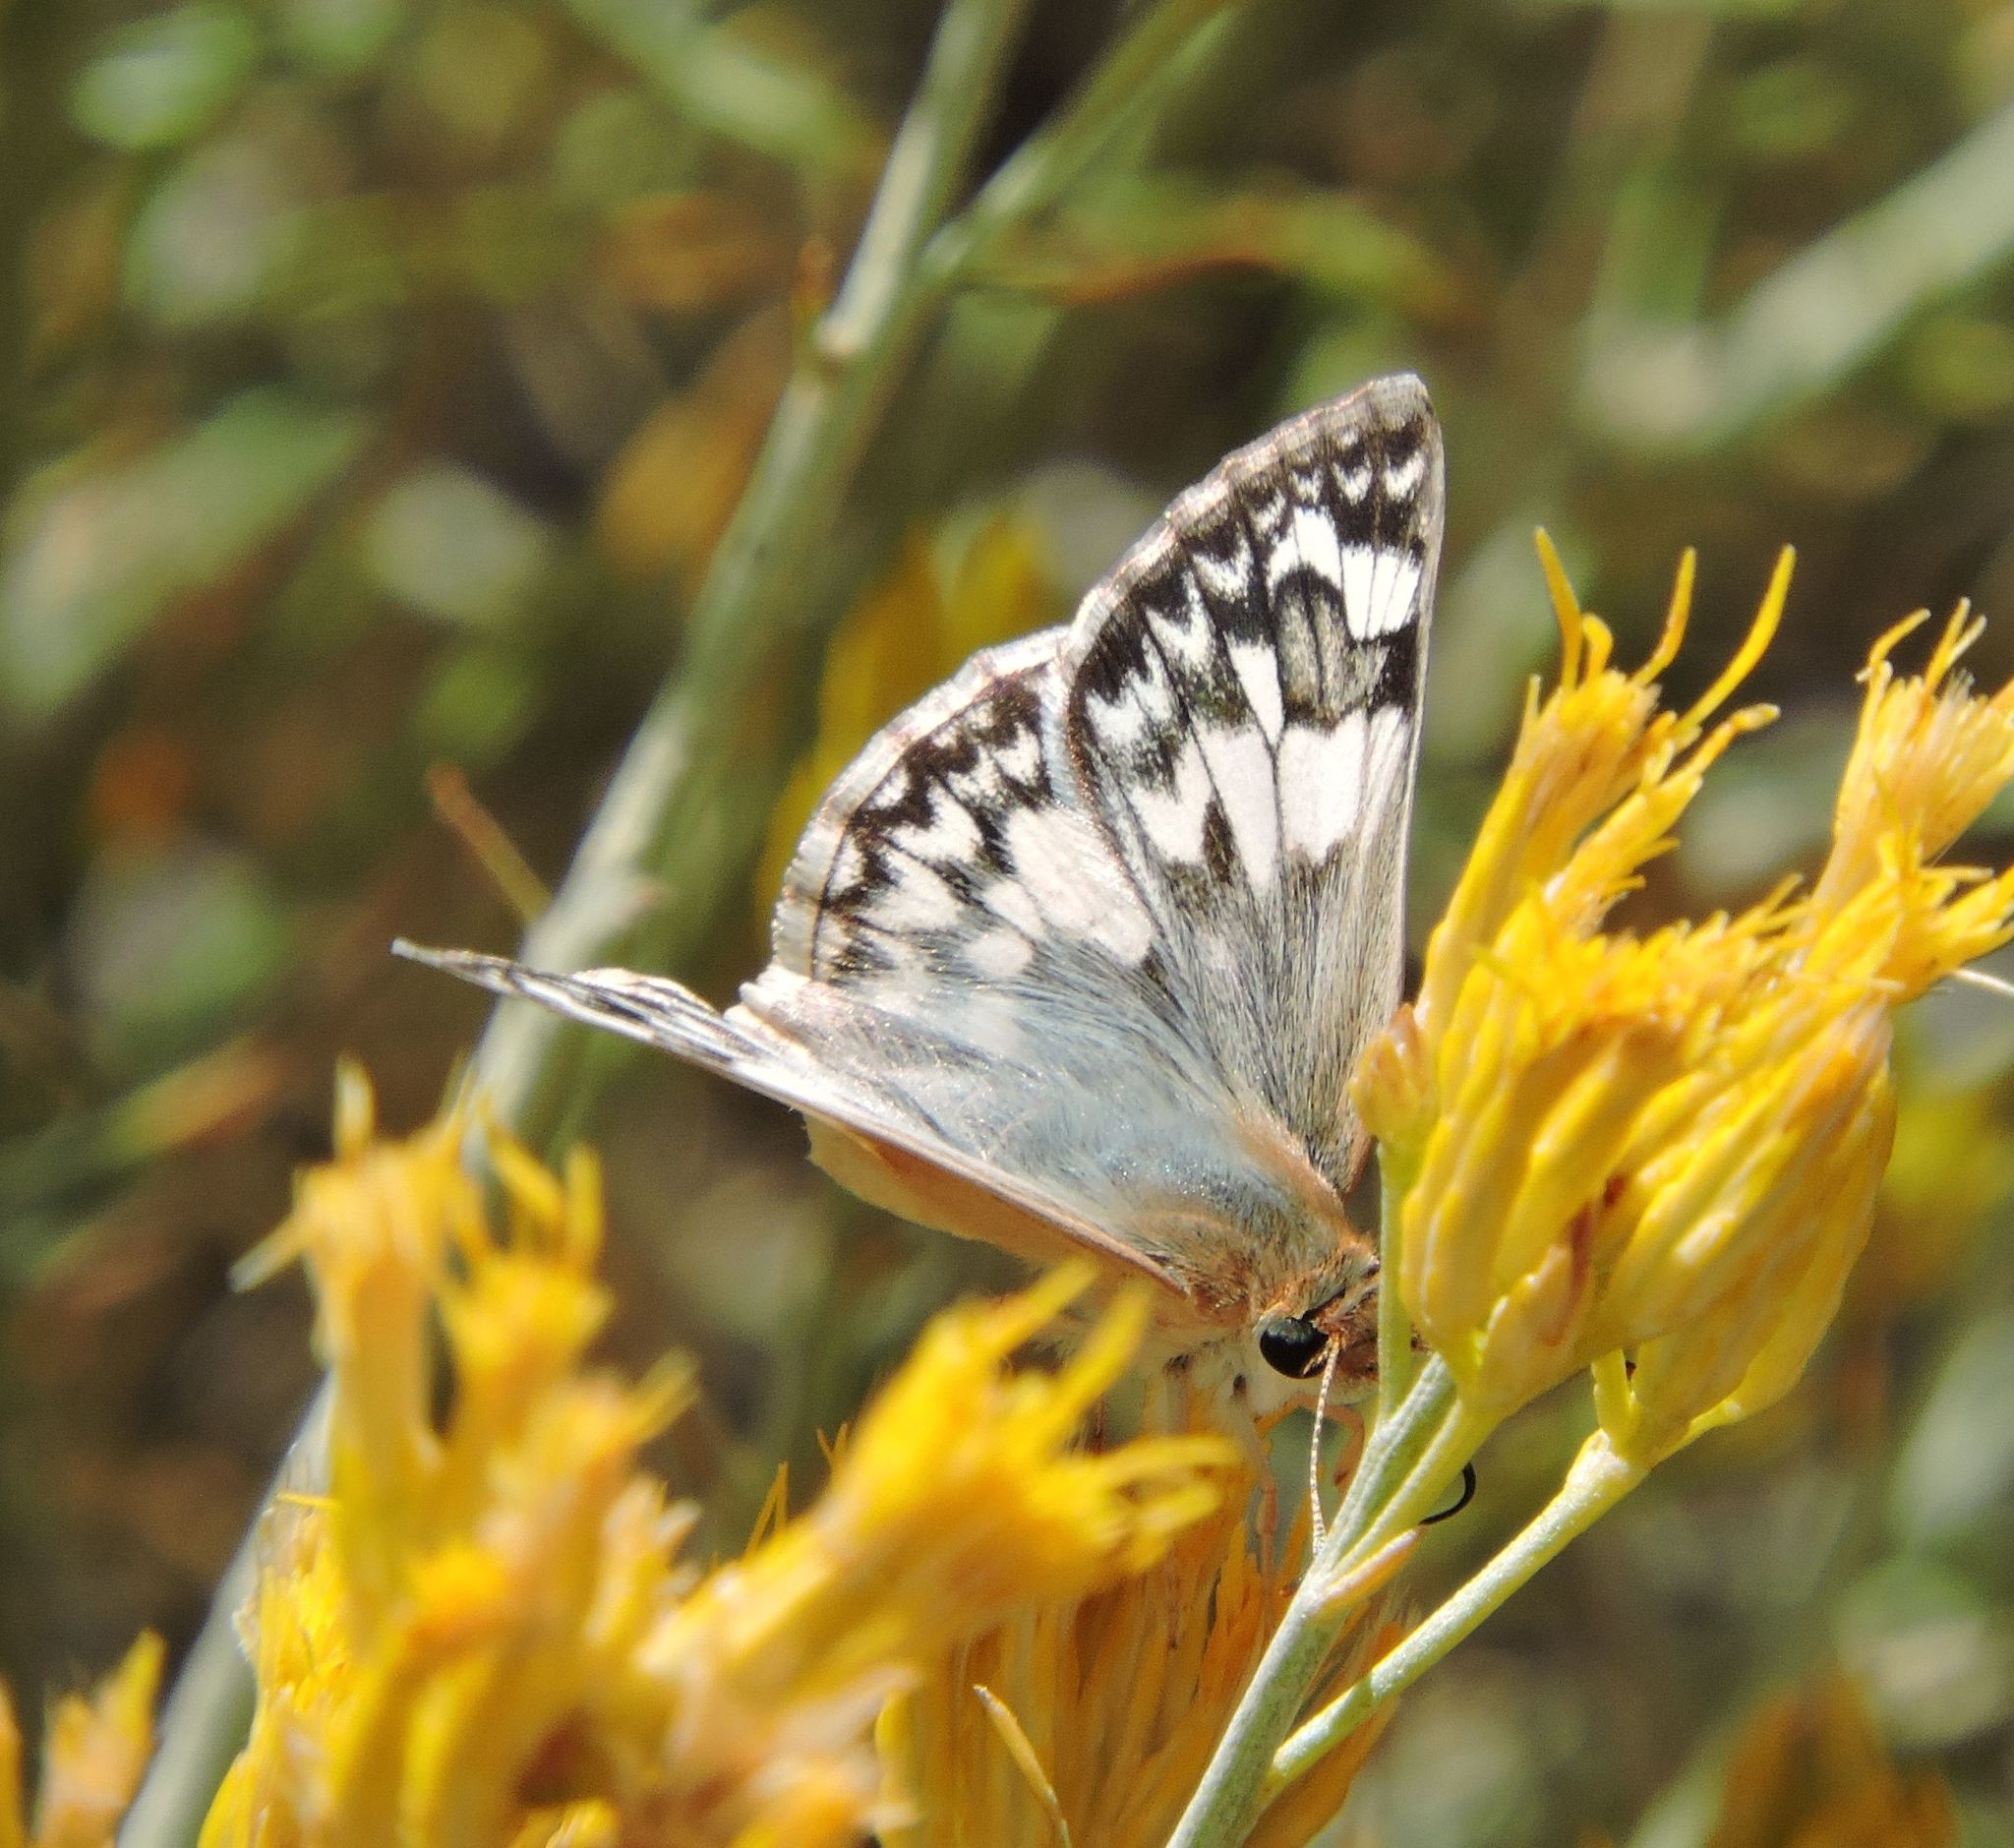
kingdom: Animalia
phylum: Arthropoda
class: Insecta
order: Lepidoptera
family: Hesperiidae
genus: Heliopetes
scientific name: Heliopetes ericetorum
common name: Northern white-skipper
